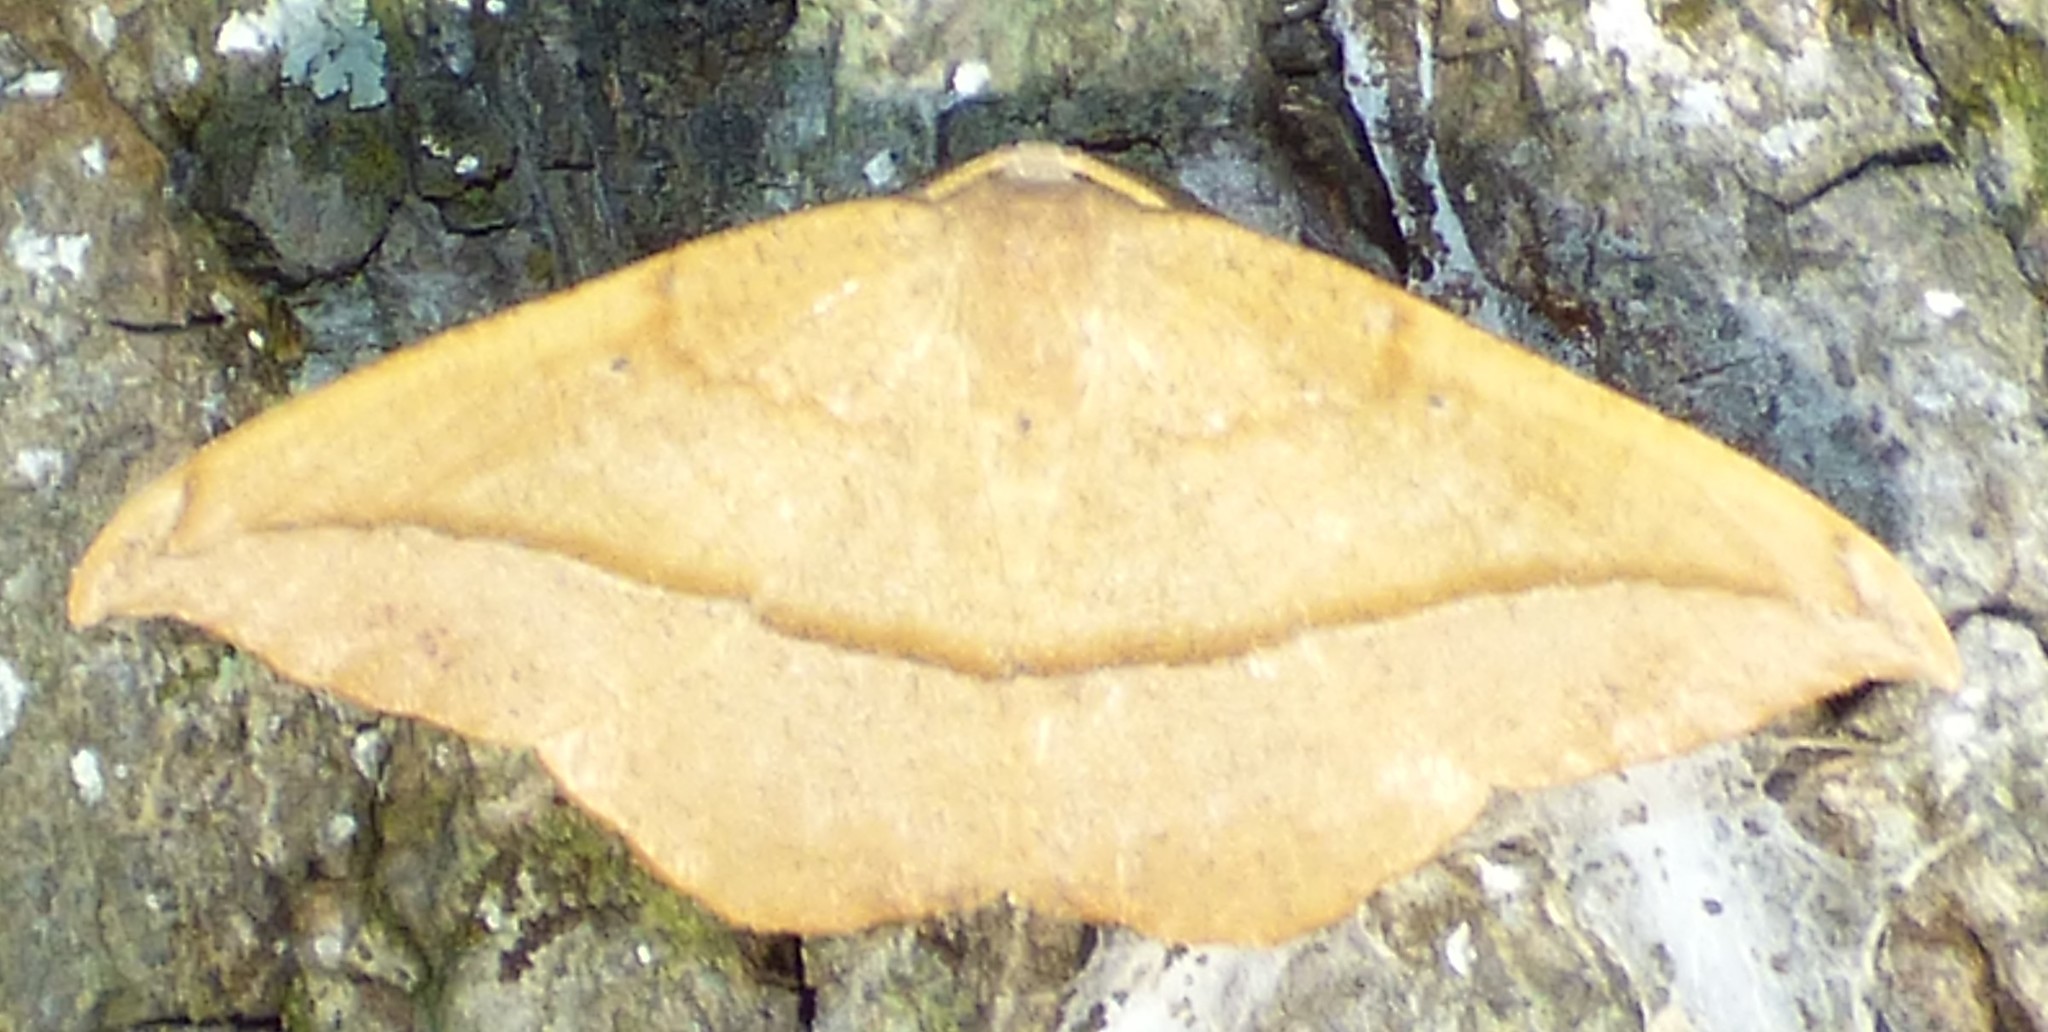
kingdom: Animalia
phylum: Arthropoda
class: Insecta
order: Lepidoptera
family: Geometridae
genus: Patalene
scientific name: Patalene olyzonaria
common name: Juniper geometer moth
